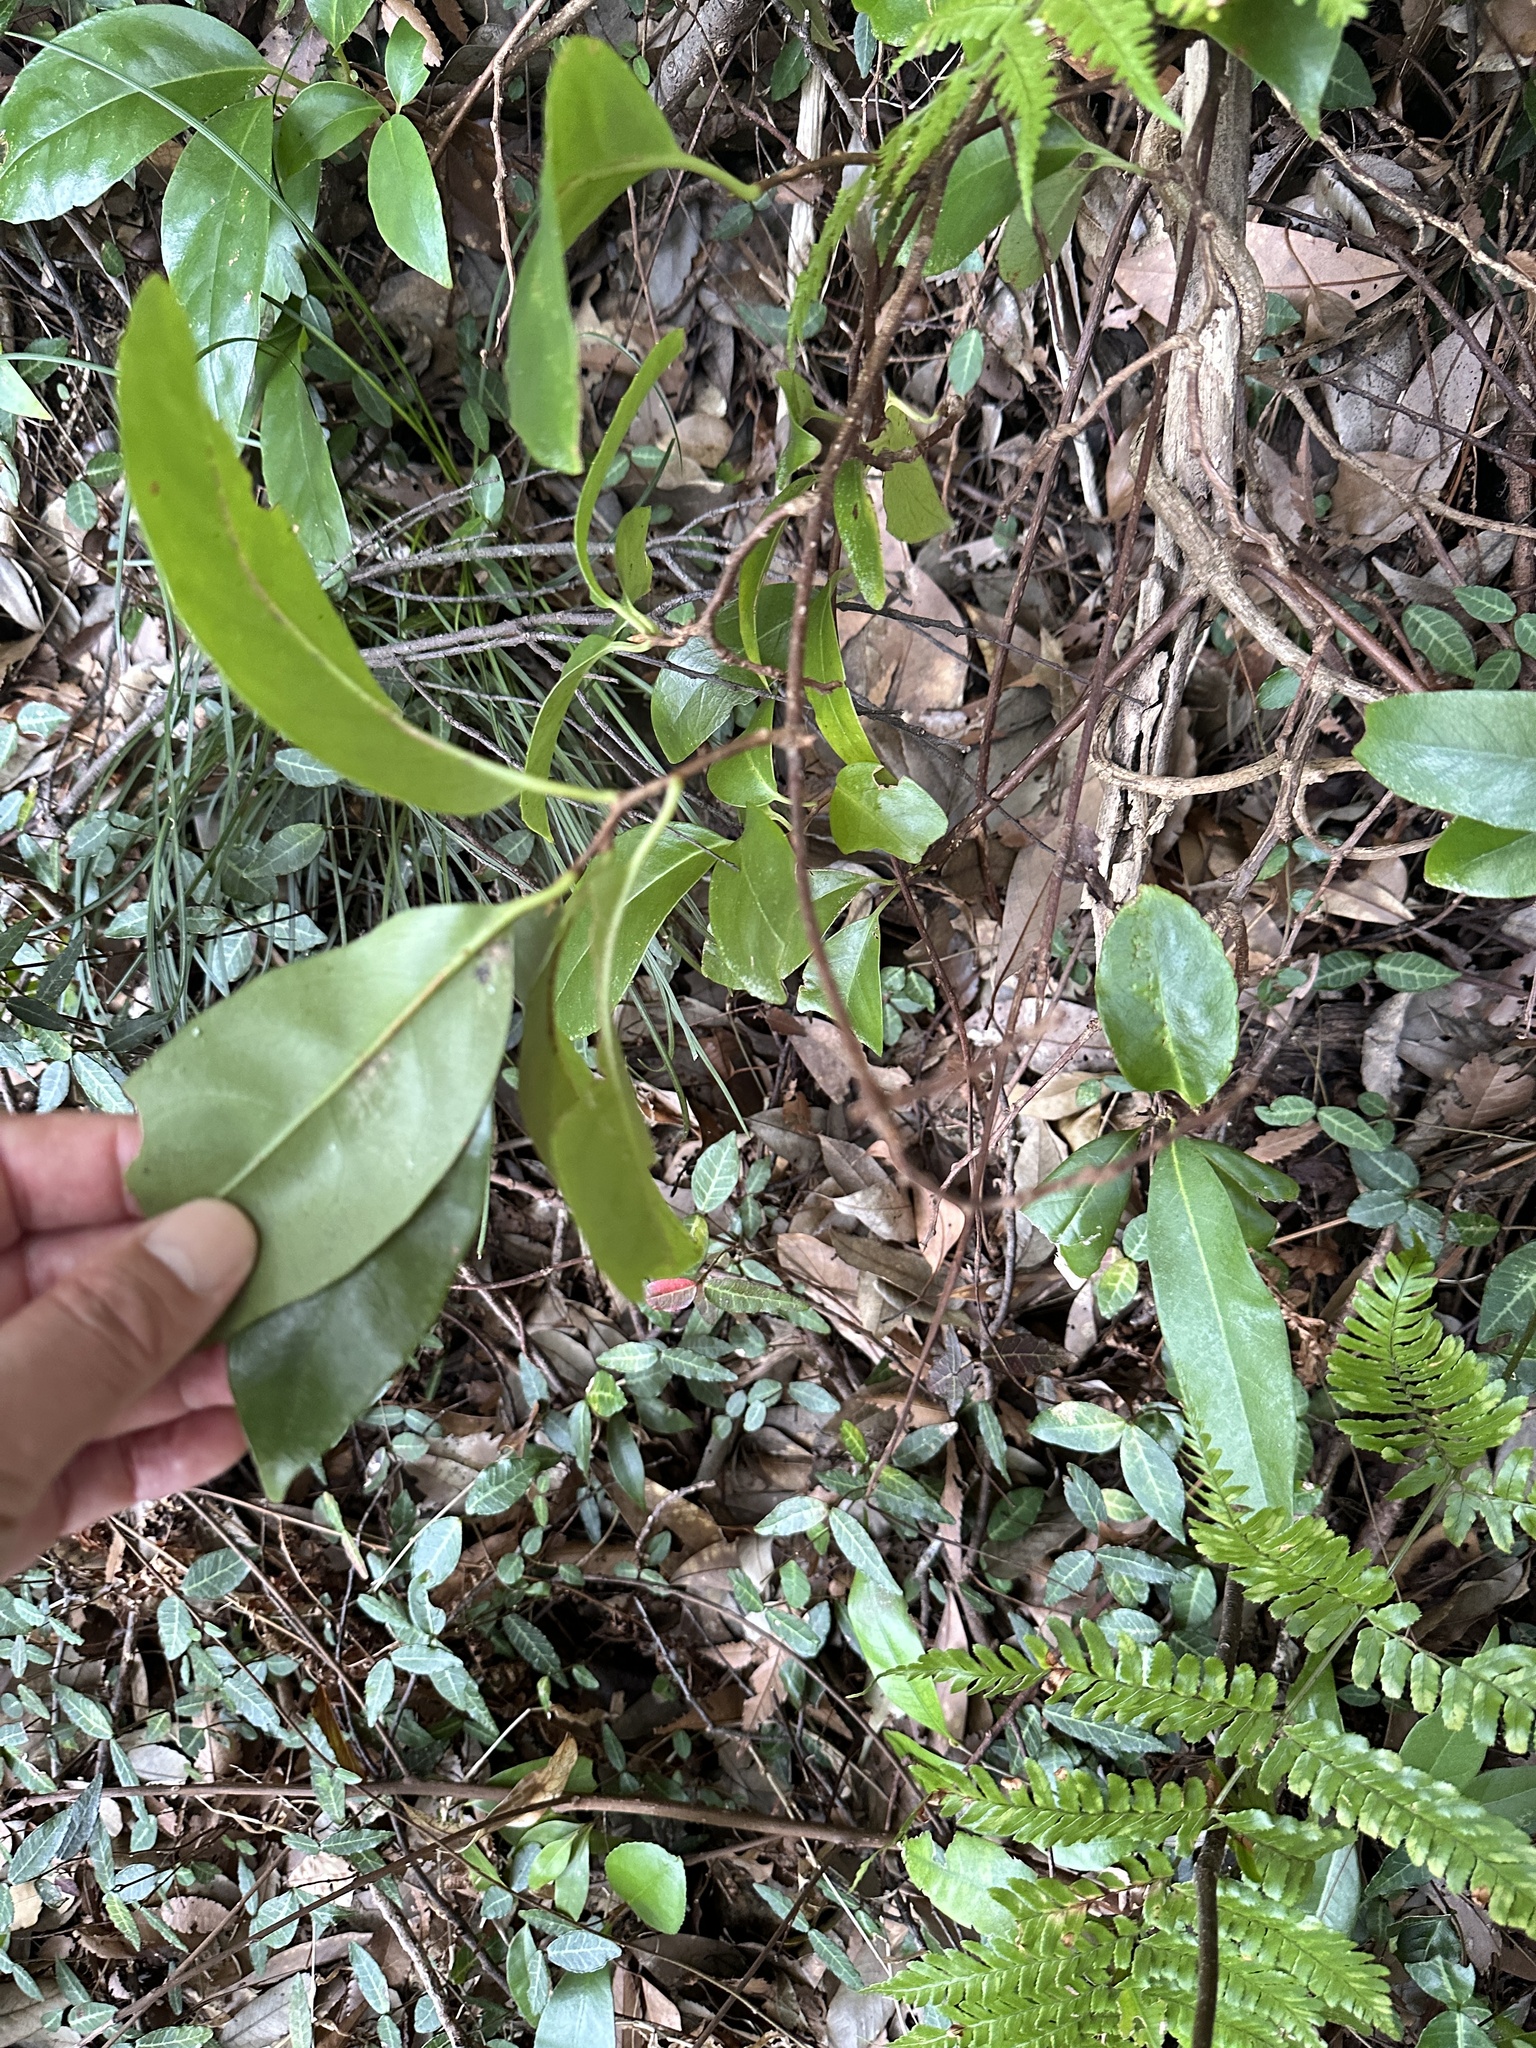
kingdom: Plantae
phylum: Tracheophyta
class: Magnoliopsida
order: Austrobaileyales
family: Schisandraceae
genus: Kadsura
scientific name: Kadsura japonica
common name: Japanese kadsura
